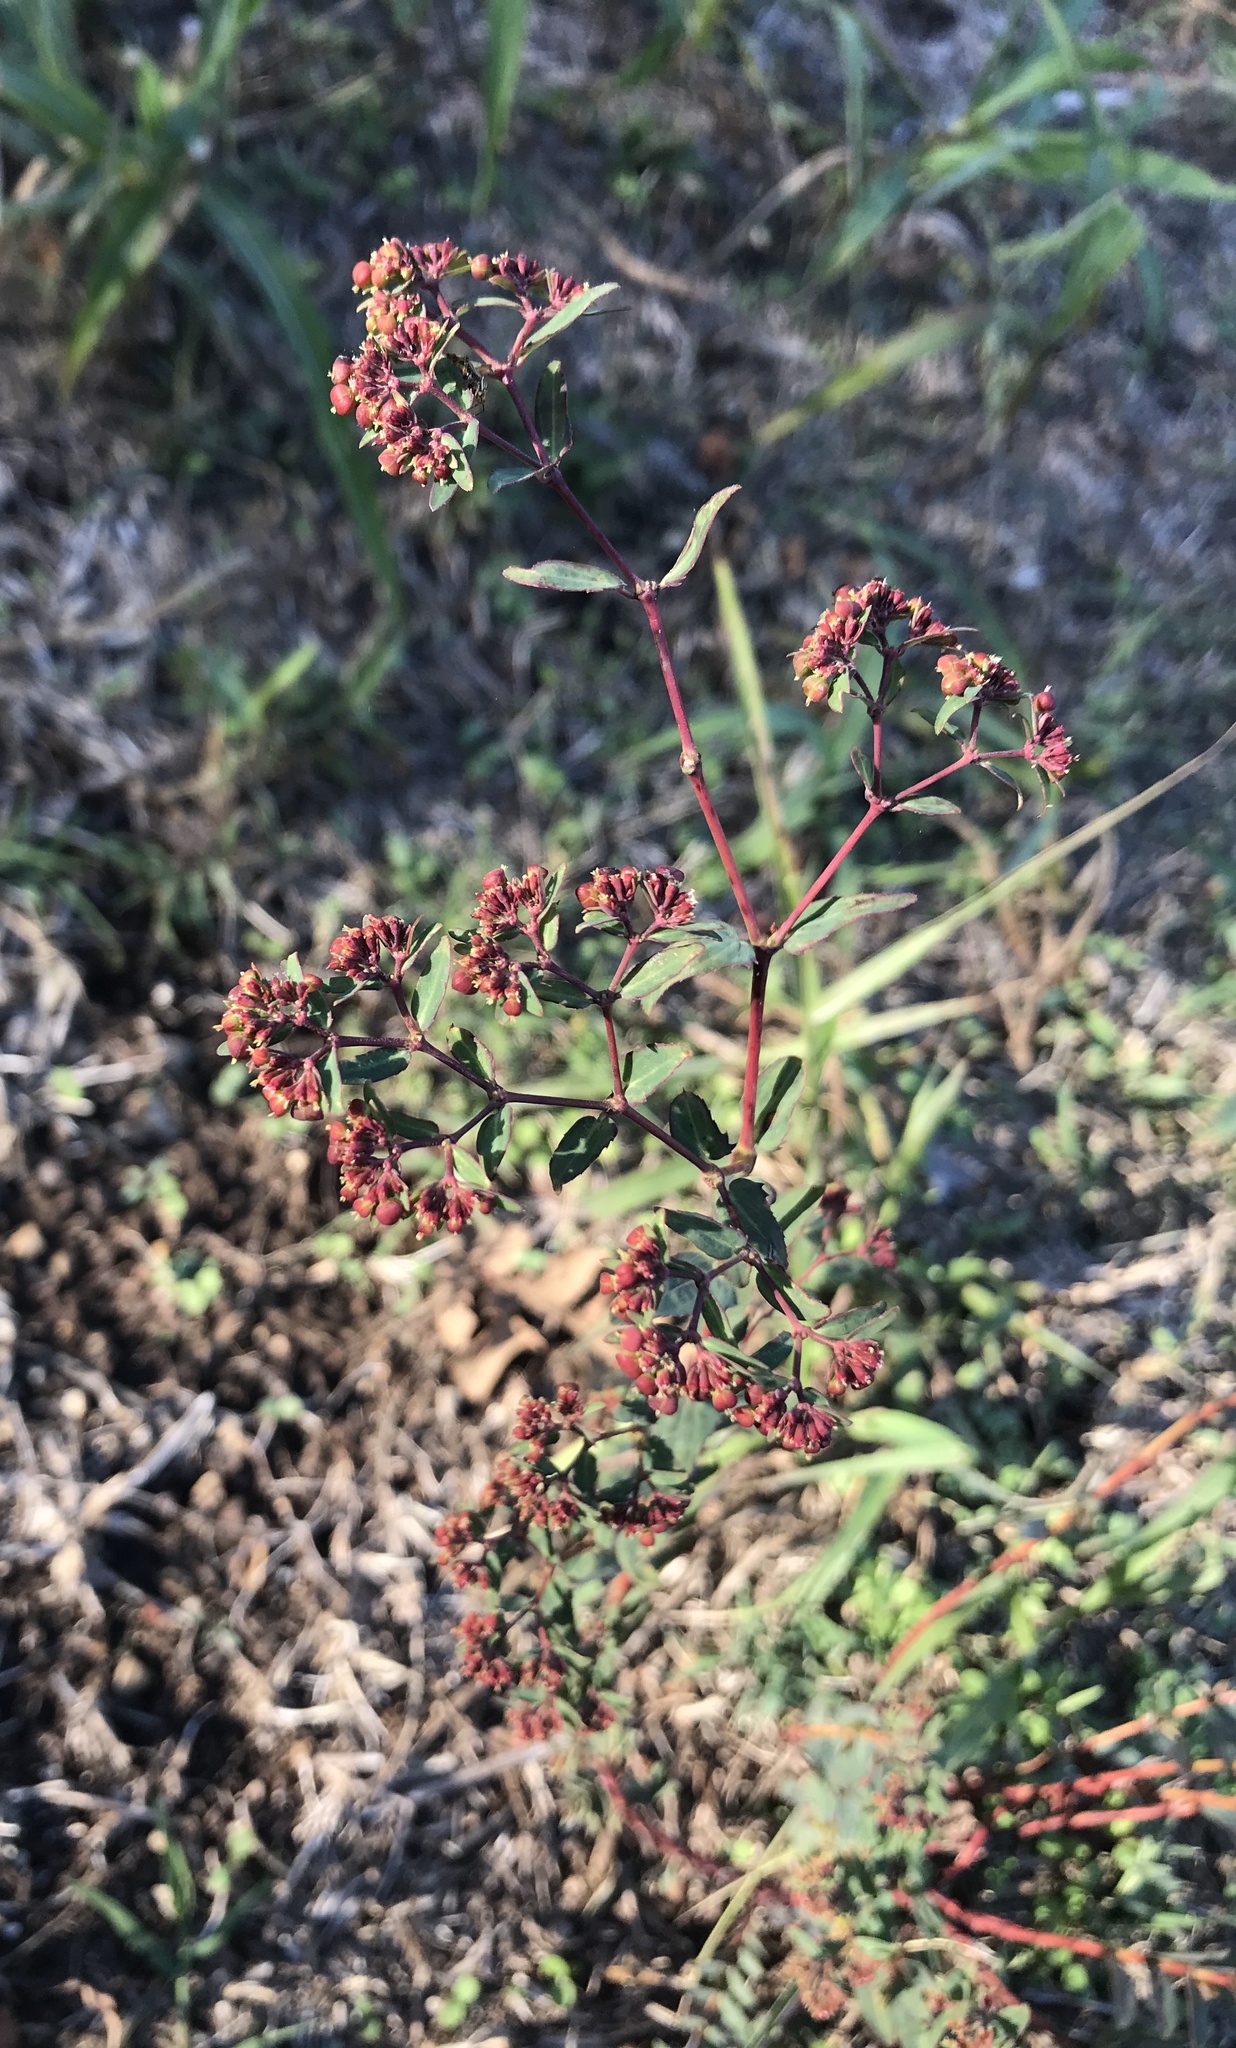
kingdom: Plantae
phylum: Tracheophyta
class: Magnoliopsida
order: Malpighiales
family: Euphorbiaceae
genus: Euphorbia
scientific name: Euphorbia nutans
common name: Eyebane
